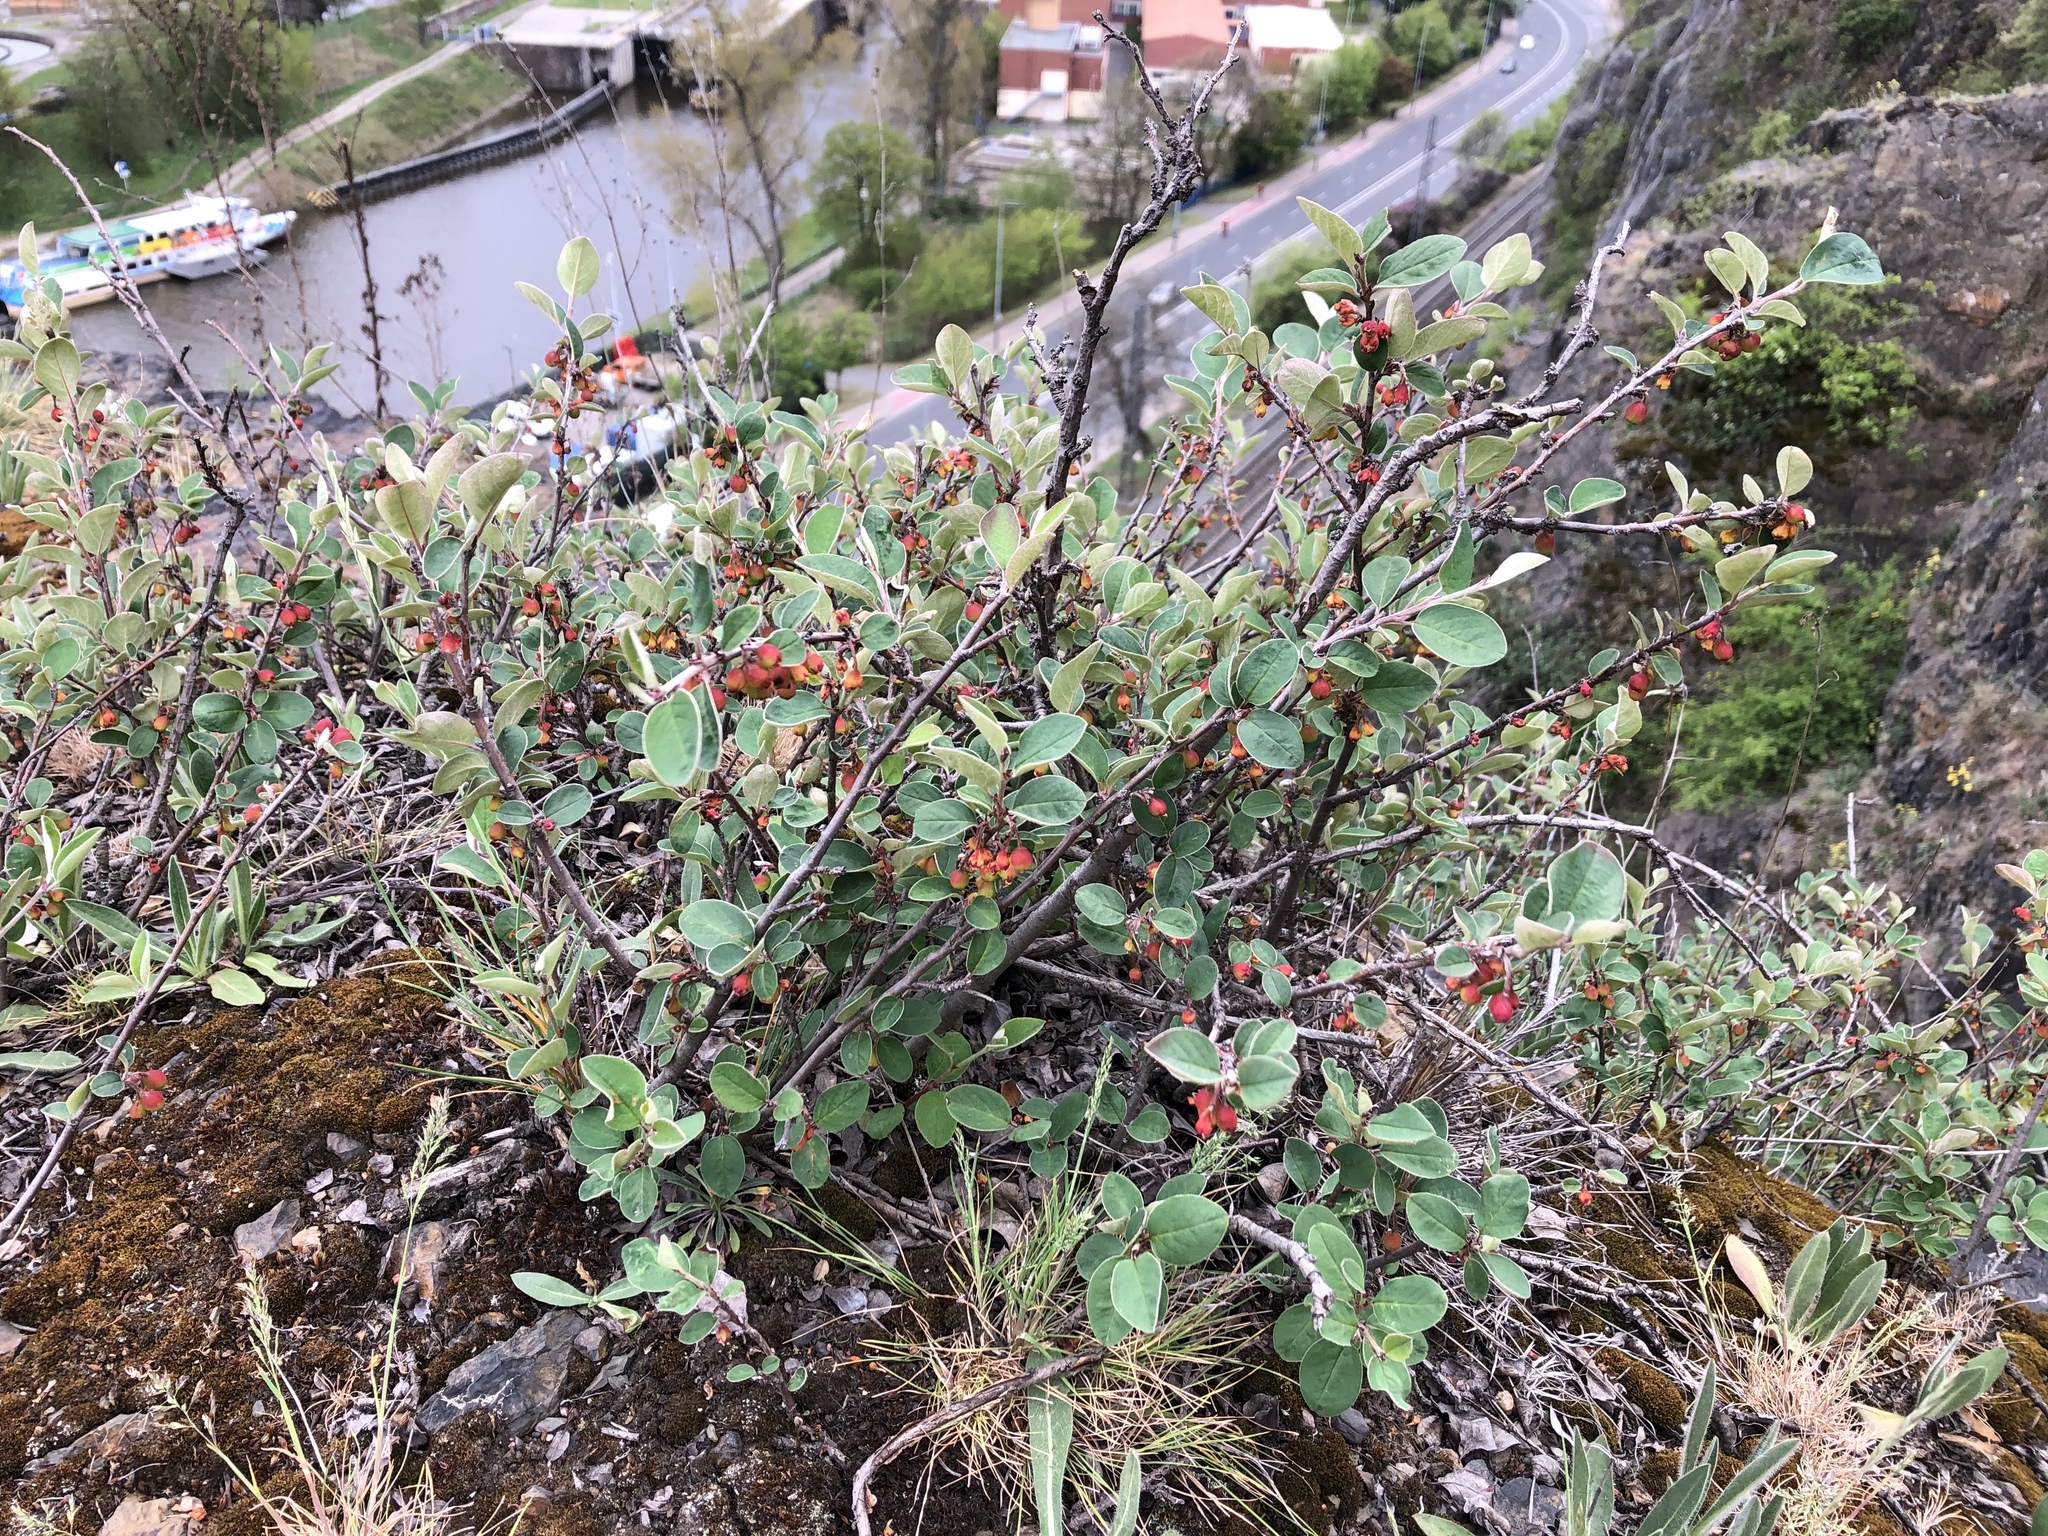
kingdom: Plantae
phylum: Tracheophyta
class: Magnoliopsida
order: Rosales
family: Rosaceae
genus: Cotoneaster
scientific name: Cotoneaster integerrimus
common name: Wild cotoneaster
